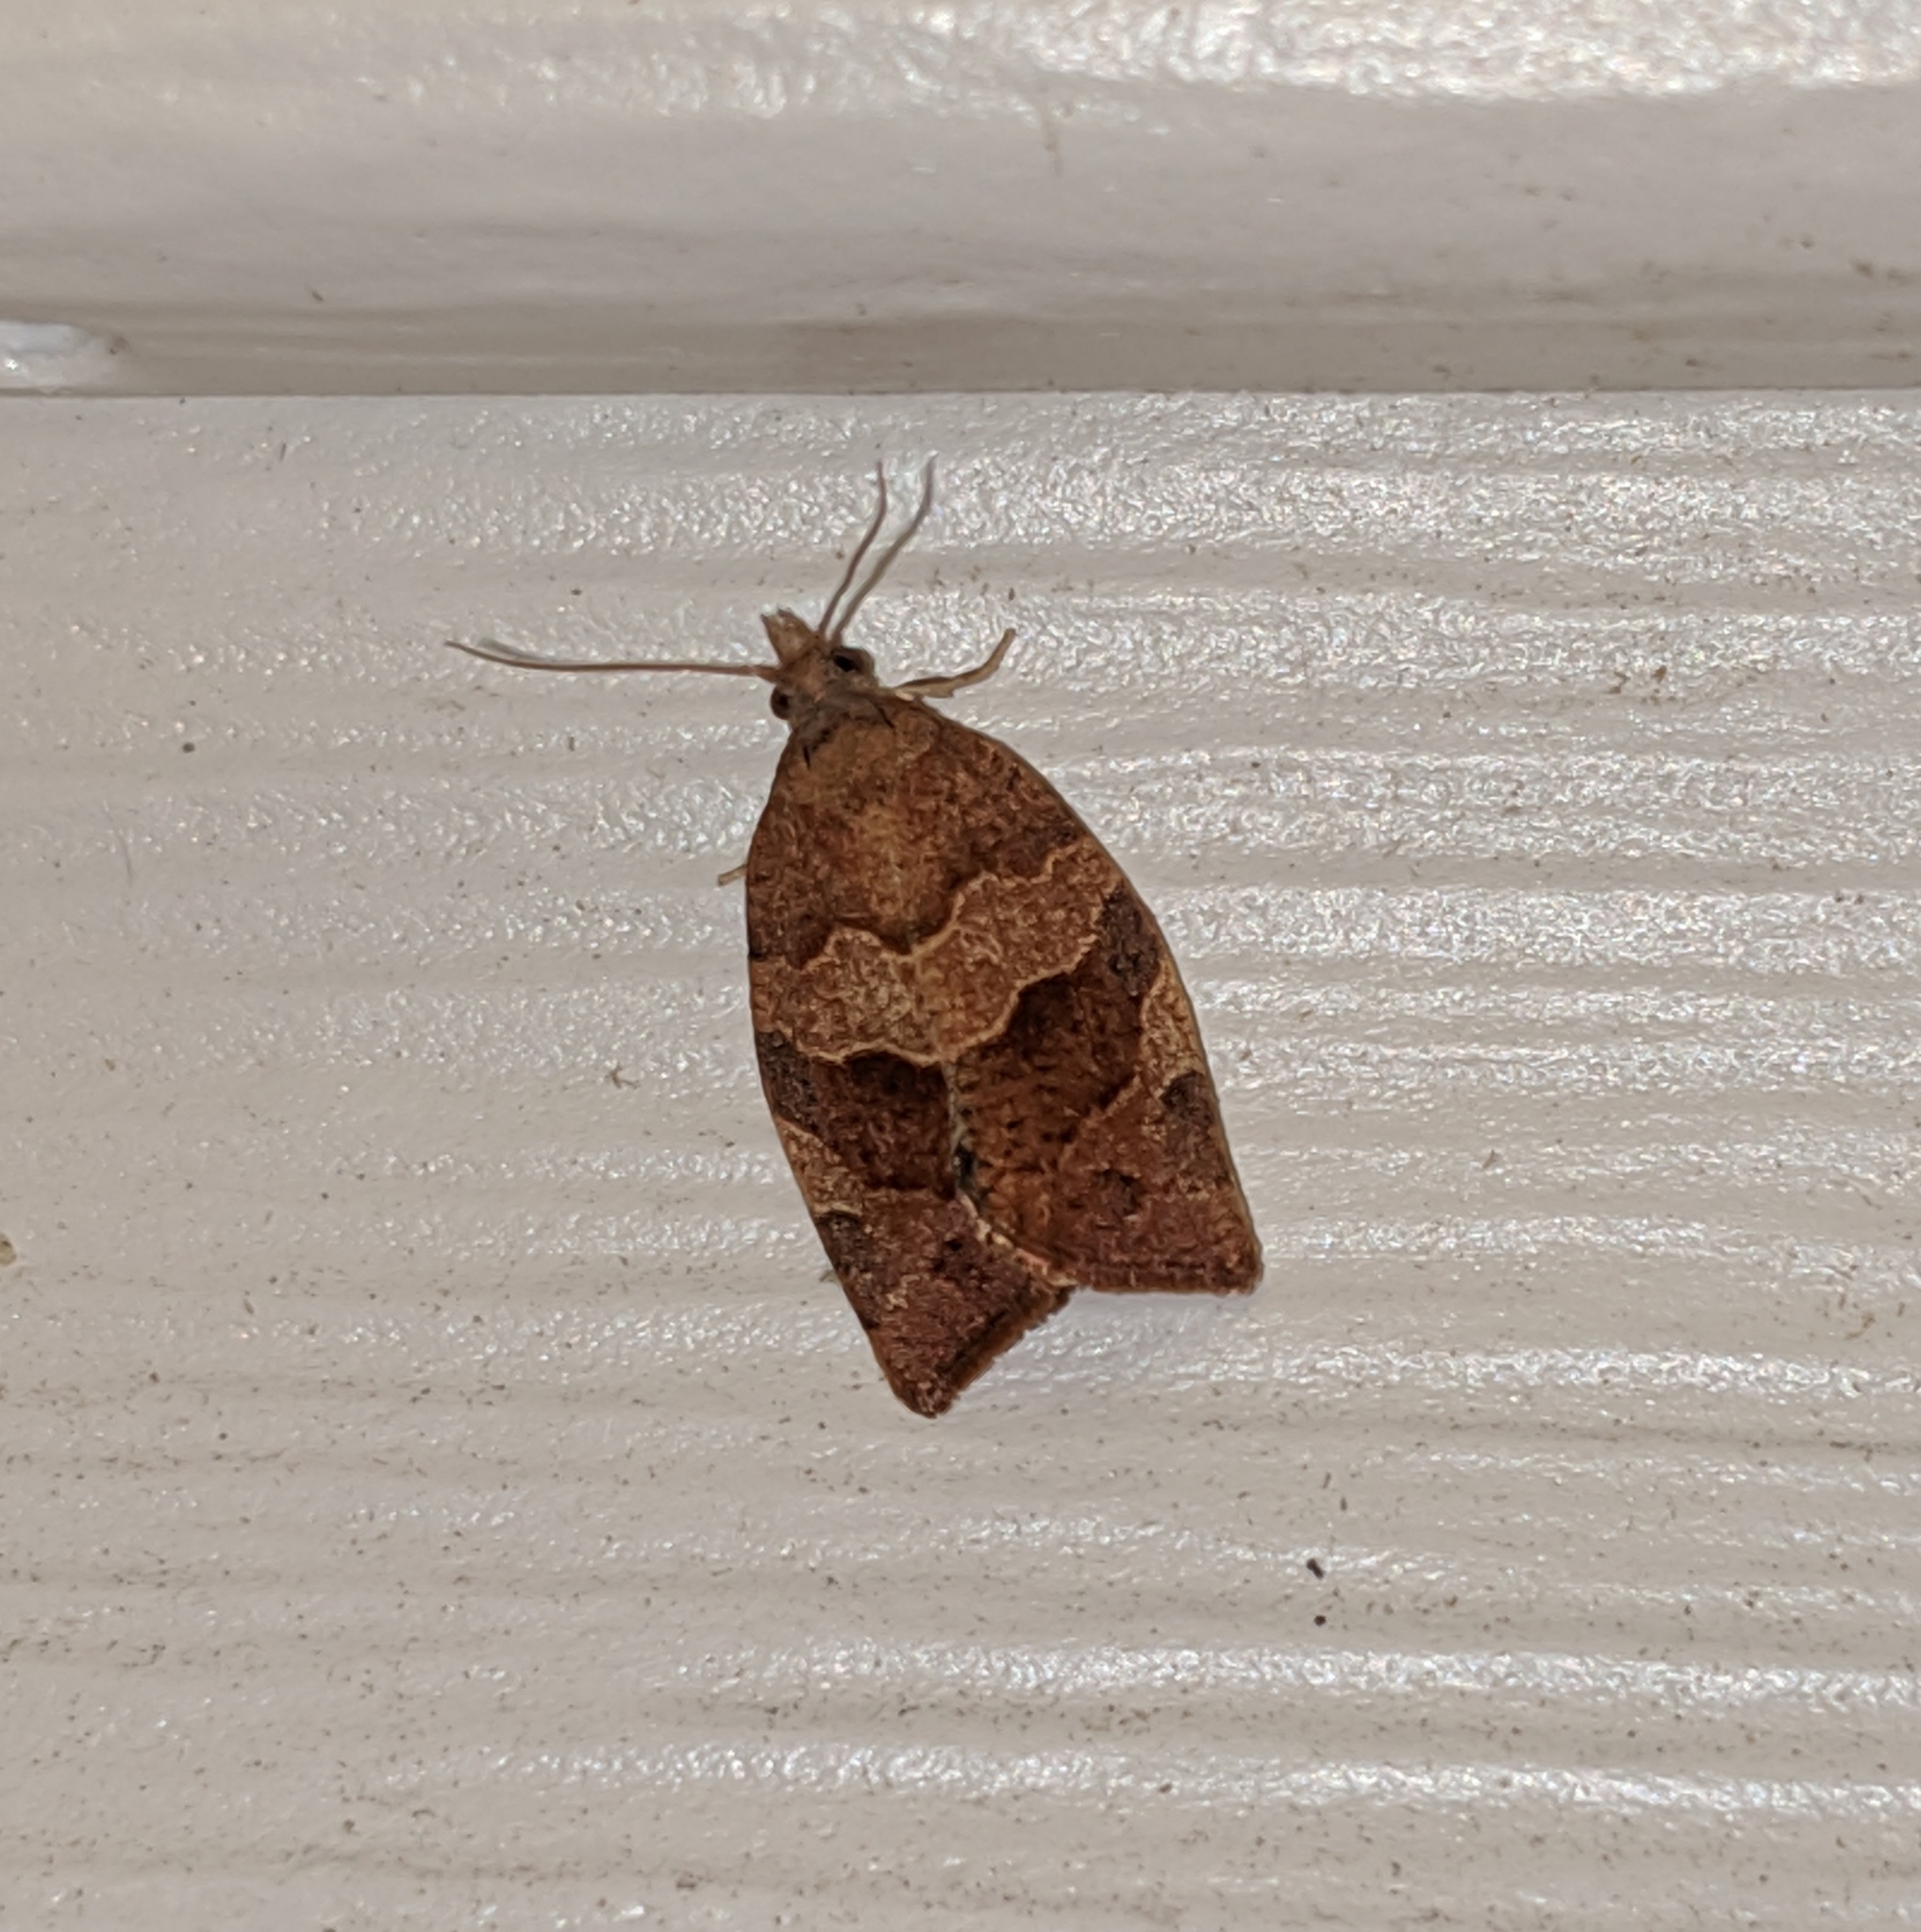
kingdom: Animalia
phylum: Arthropoda
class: Insecta
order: Lepidoptera
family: Tortricidae
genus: Pandemis
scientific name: Pandemis canadana
